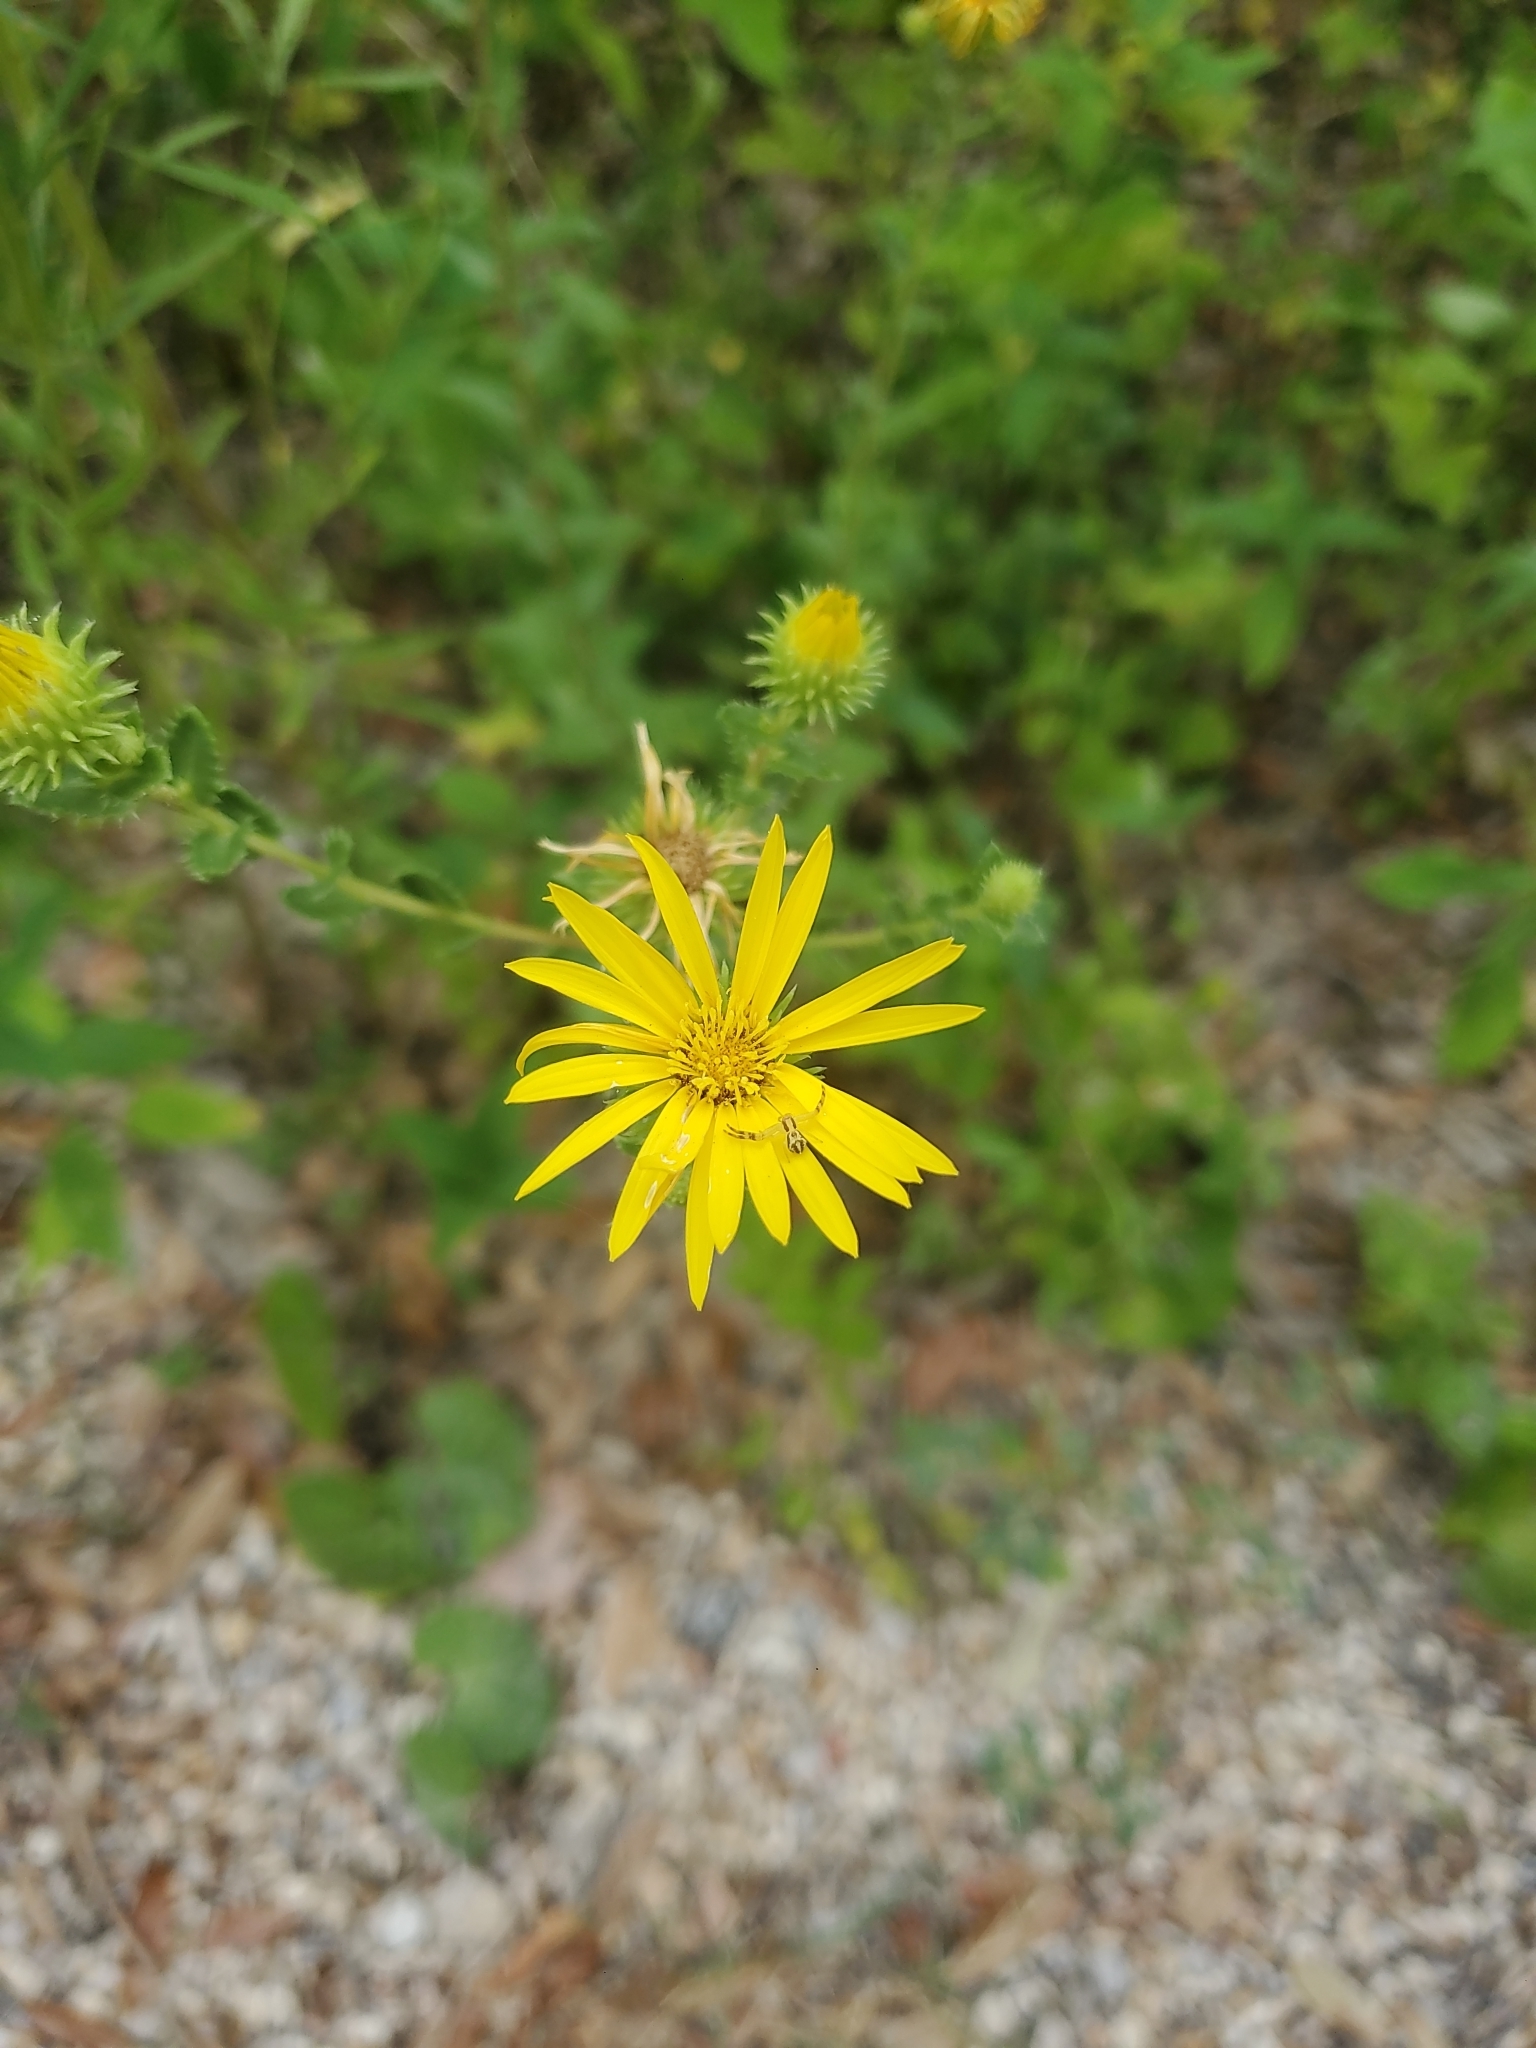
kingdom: Plantae
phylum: Tracheophyta
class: Magnoliopsida
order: Asterales
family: Asteraceae
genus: Grindelia
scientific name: Grindelia lanceolata
